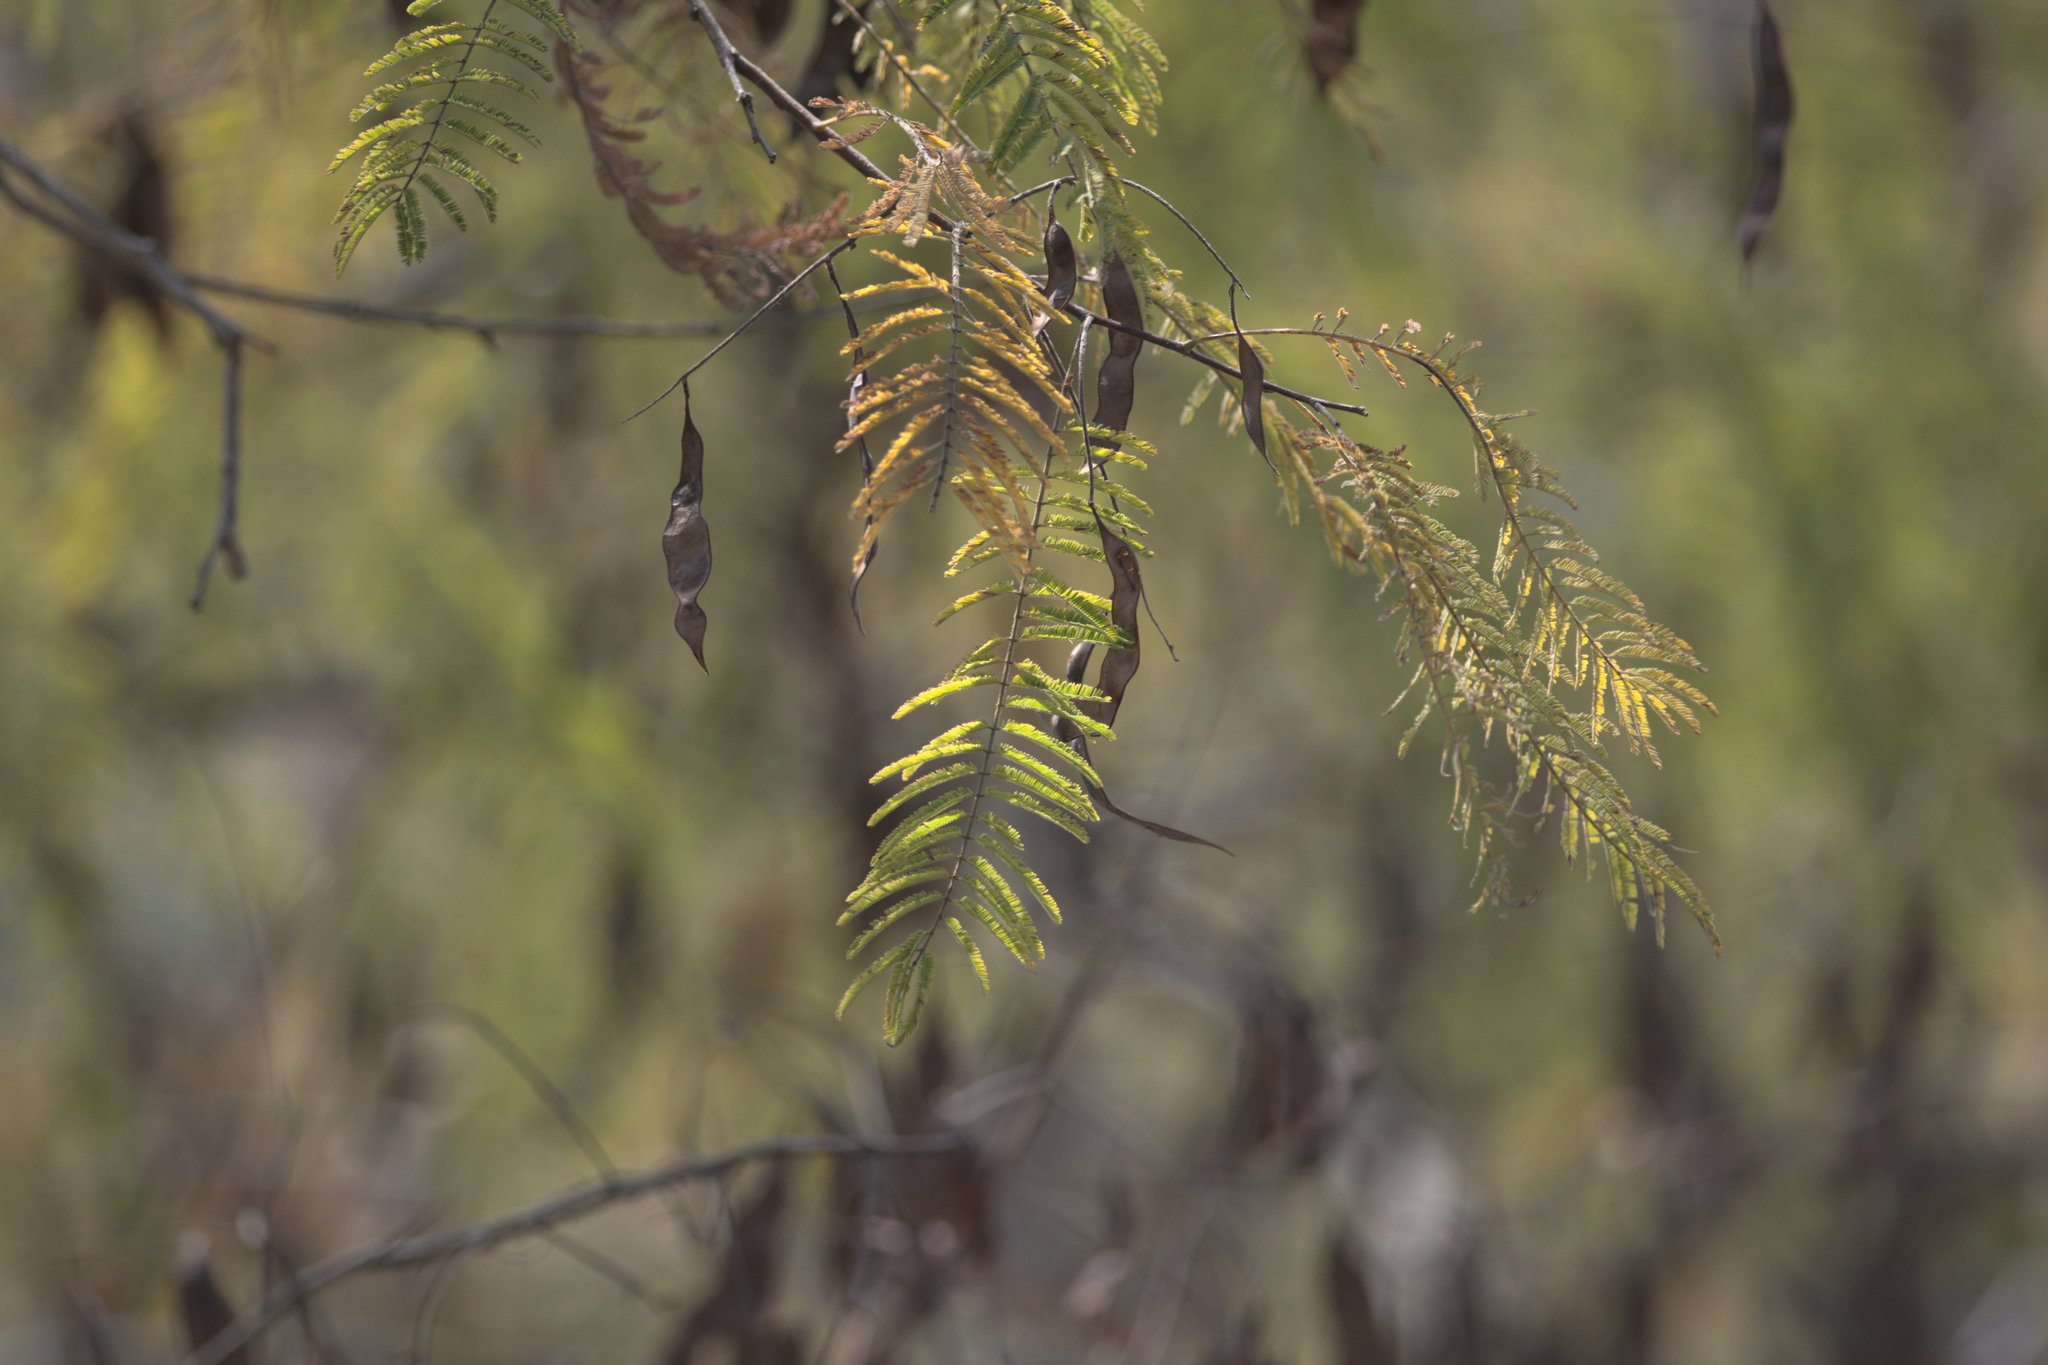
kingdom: Plantae
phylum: Tracheophyta
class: Magnoliopsida
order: Fabales
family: Fabaceae
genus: Senegalia
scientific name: Senegalia catechu
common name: Black cutch
